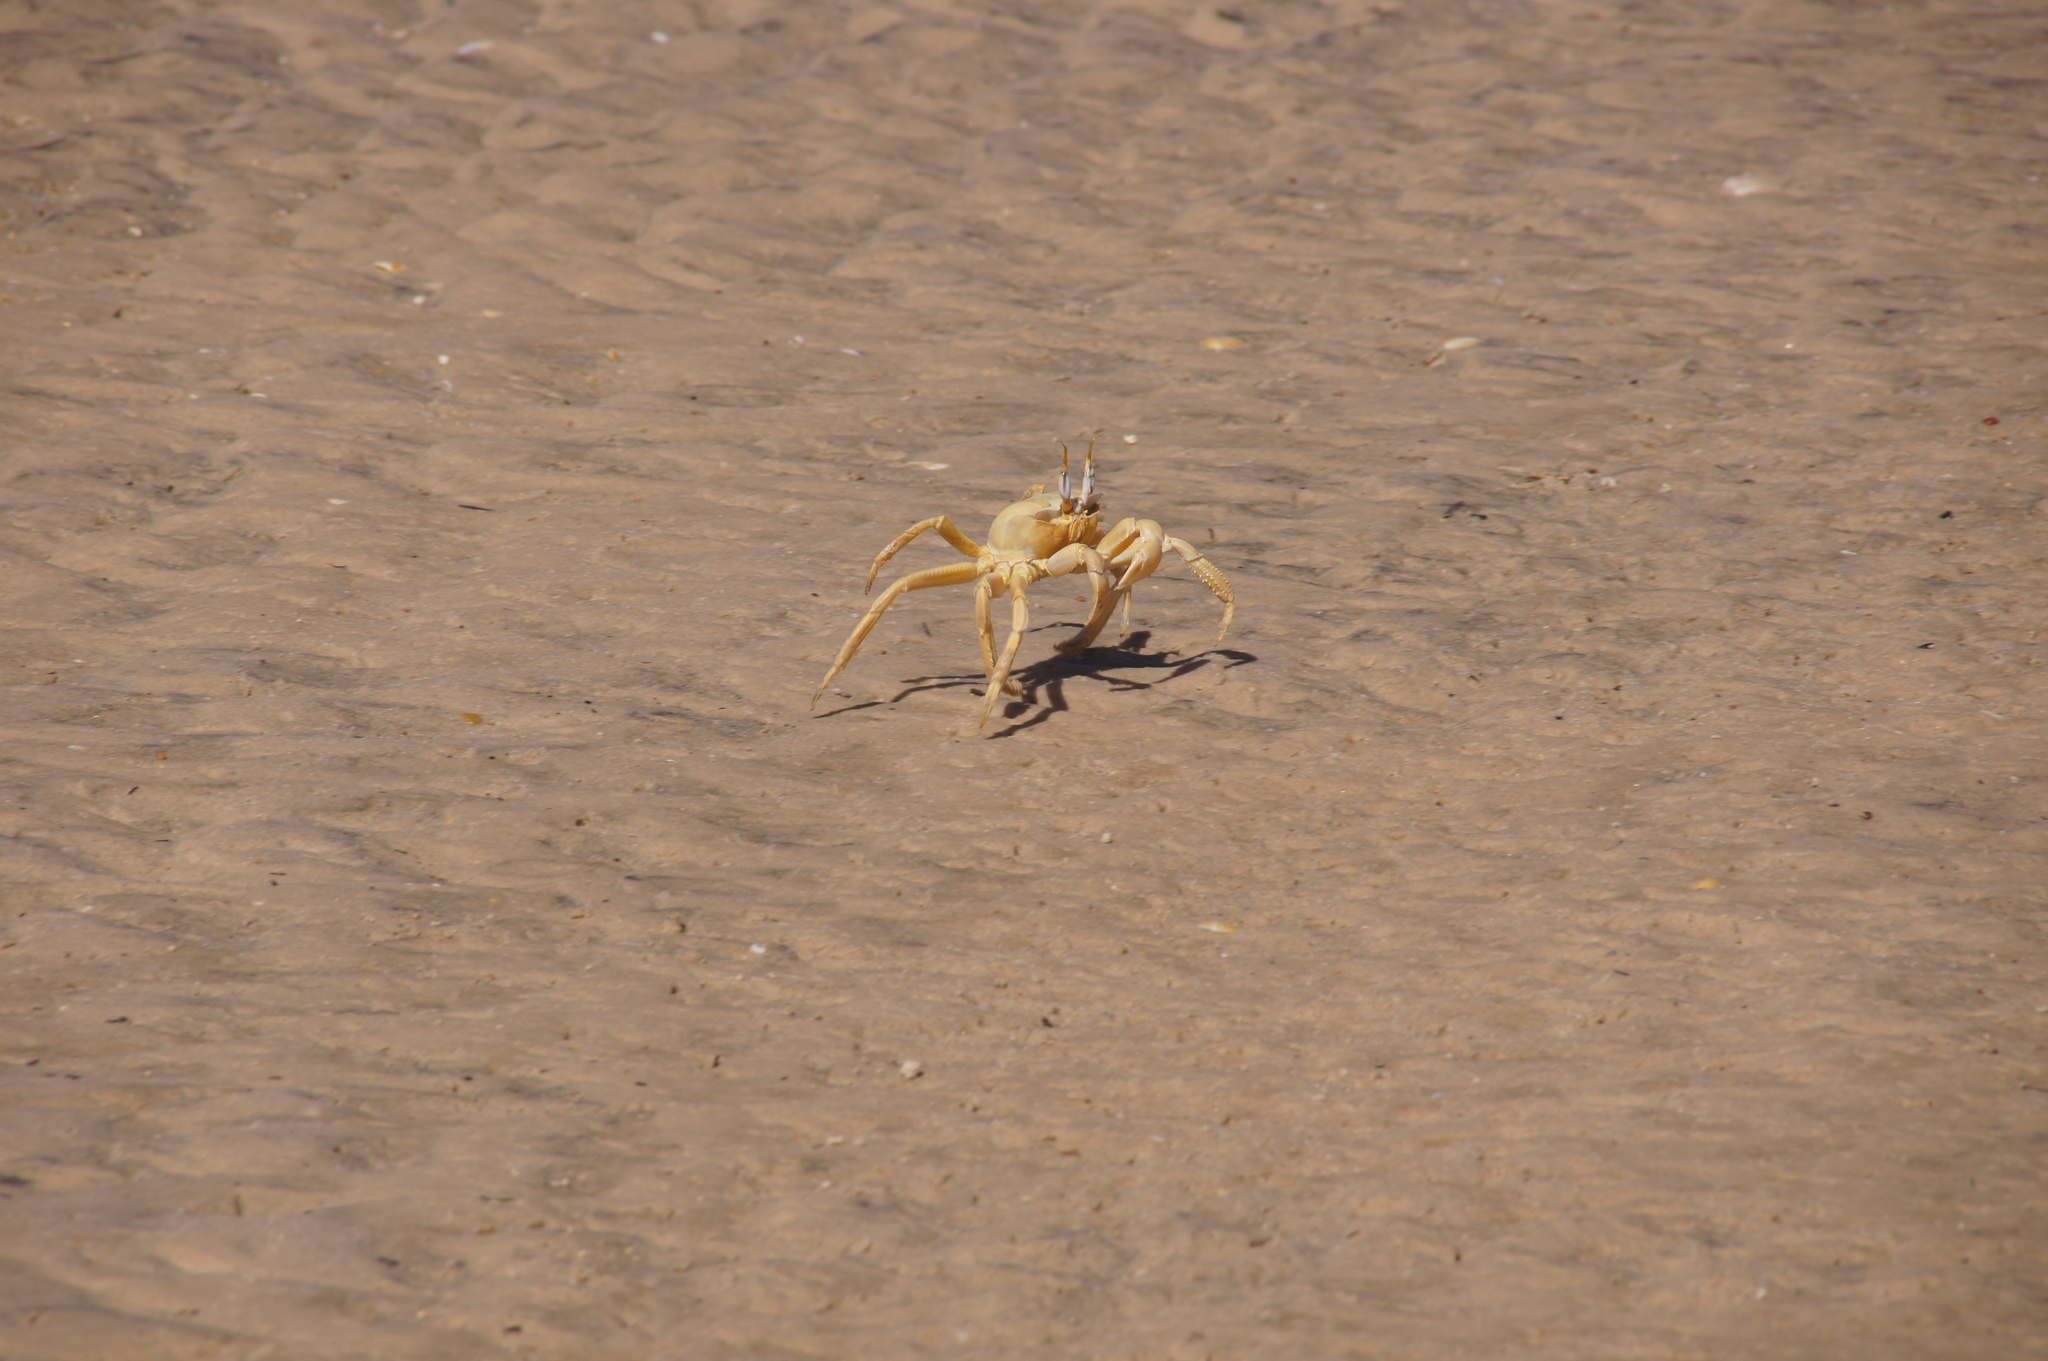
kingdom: Animalia
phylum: Arthropoda
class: Malacostraca
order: Decapoda
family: Ocypodidae
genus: Ocypode
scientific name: Ocypode cursor
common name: Tufted ghost crab
